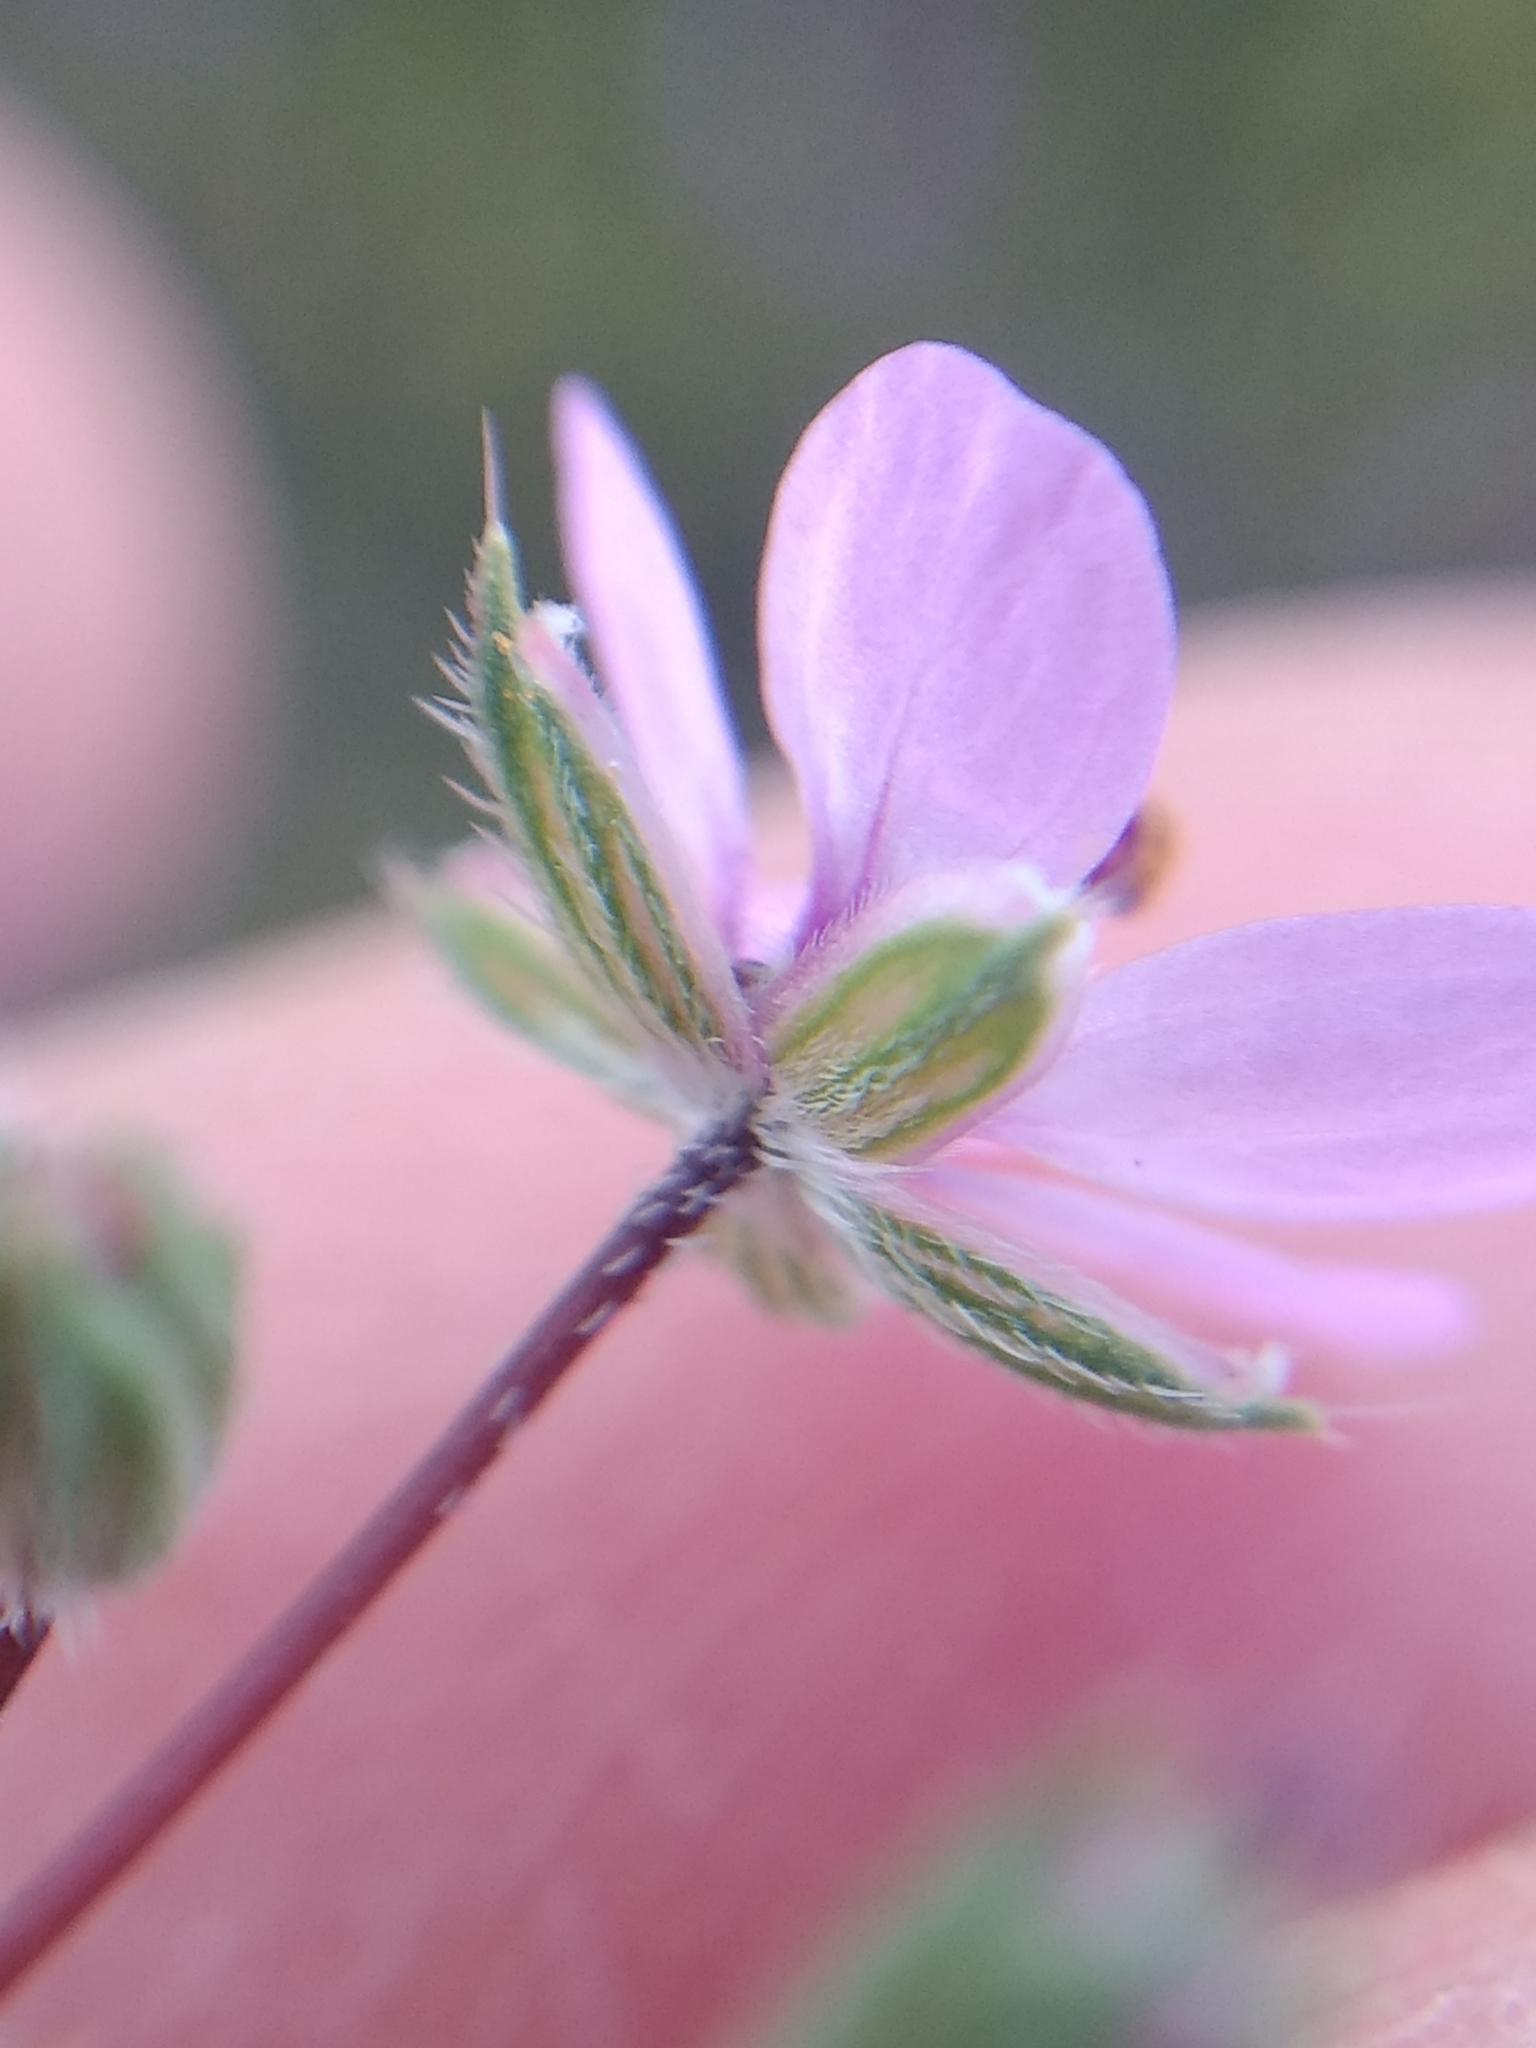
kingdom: Plantae
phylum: Tracheophyta
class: Magnoliopsida
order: Geraniales
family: Geraniaceae
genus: Erodium
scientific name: Erodium cicutarium
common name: Common stork's-bill
